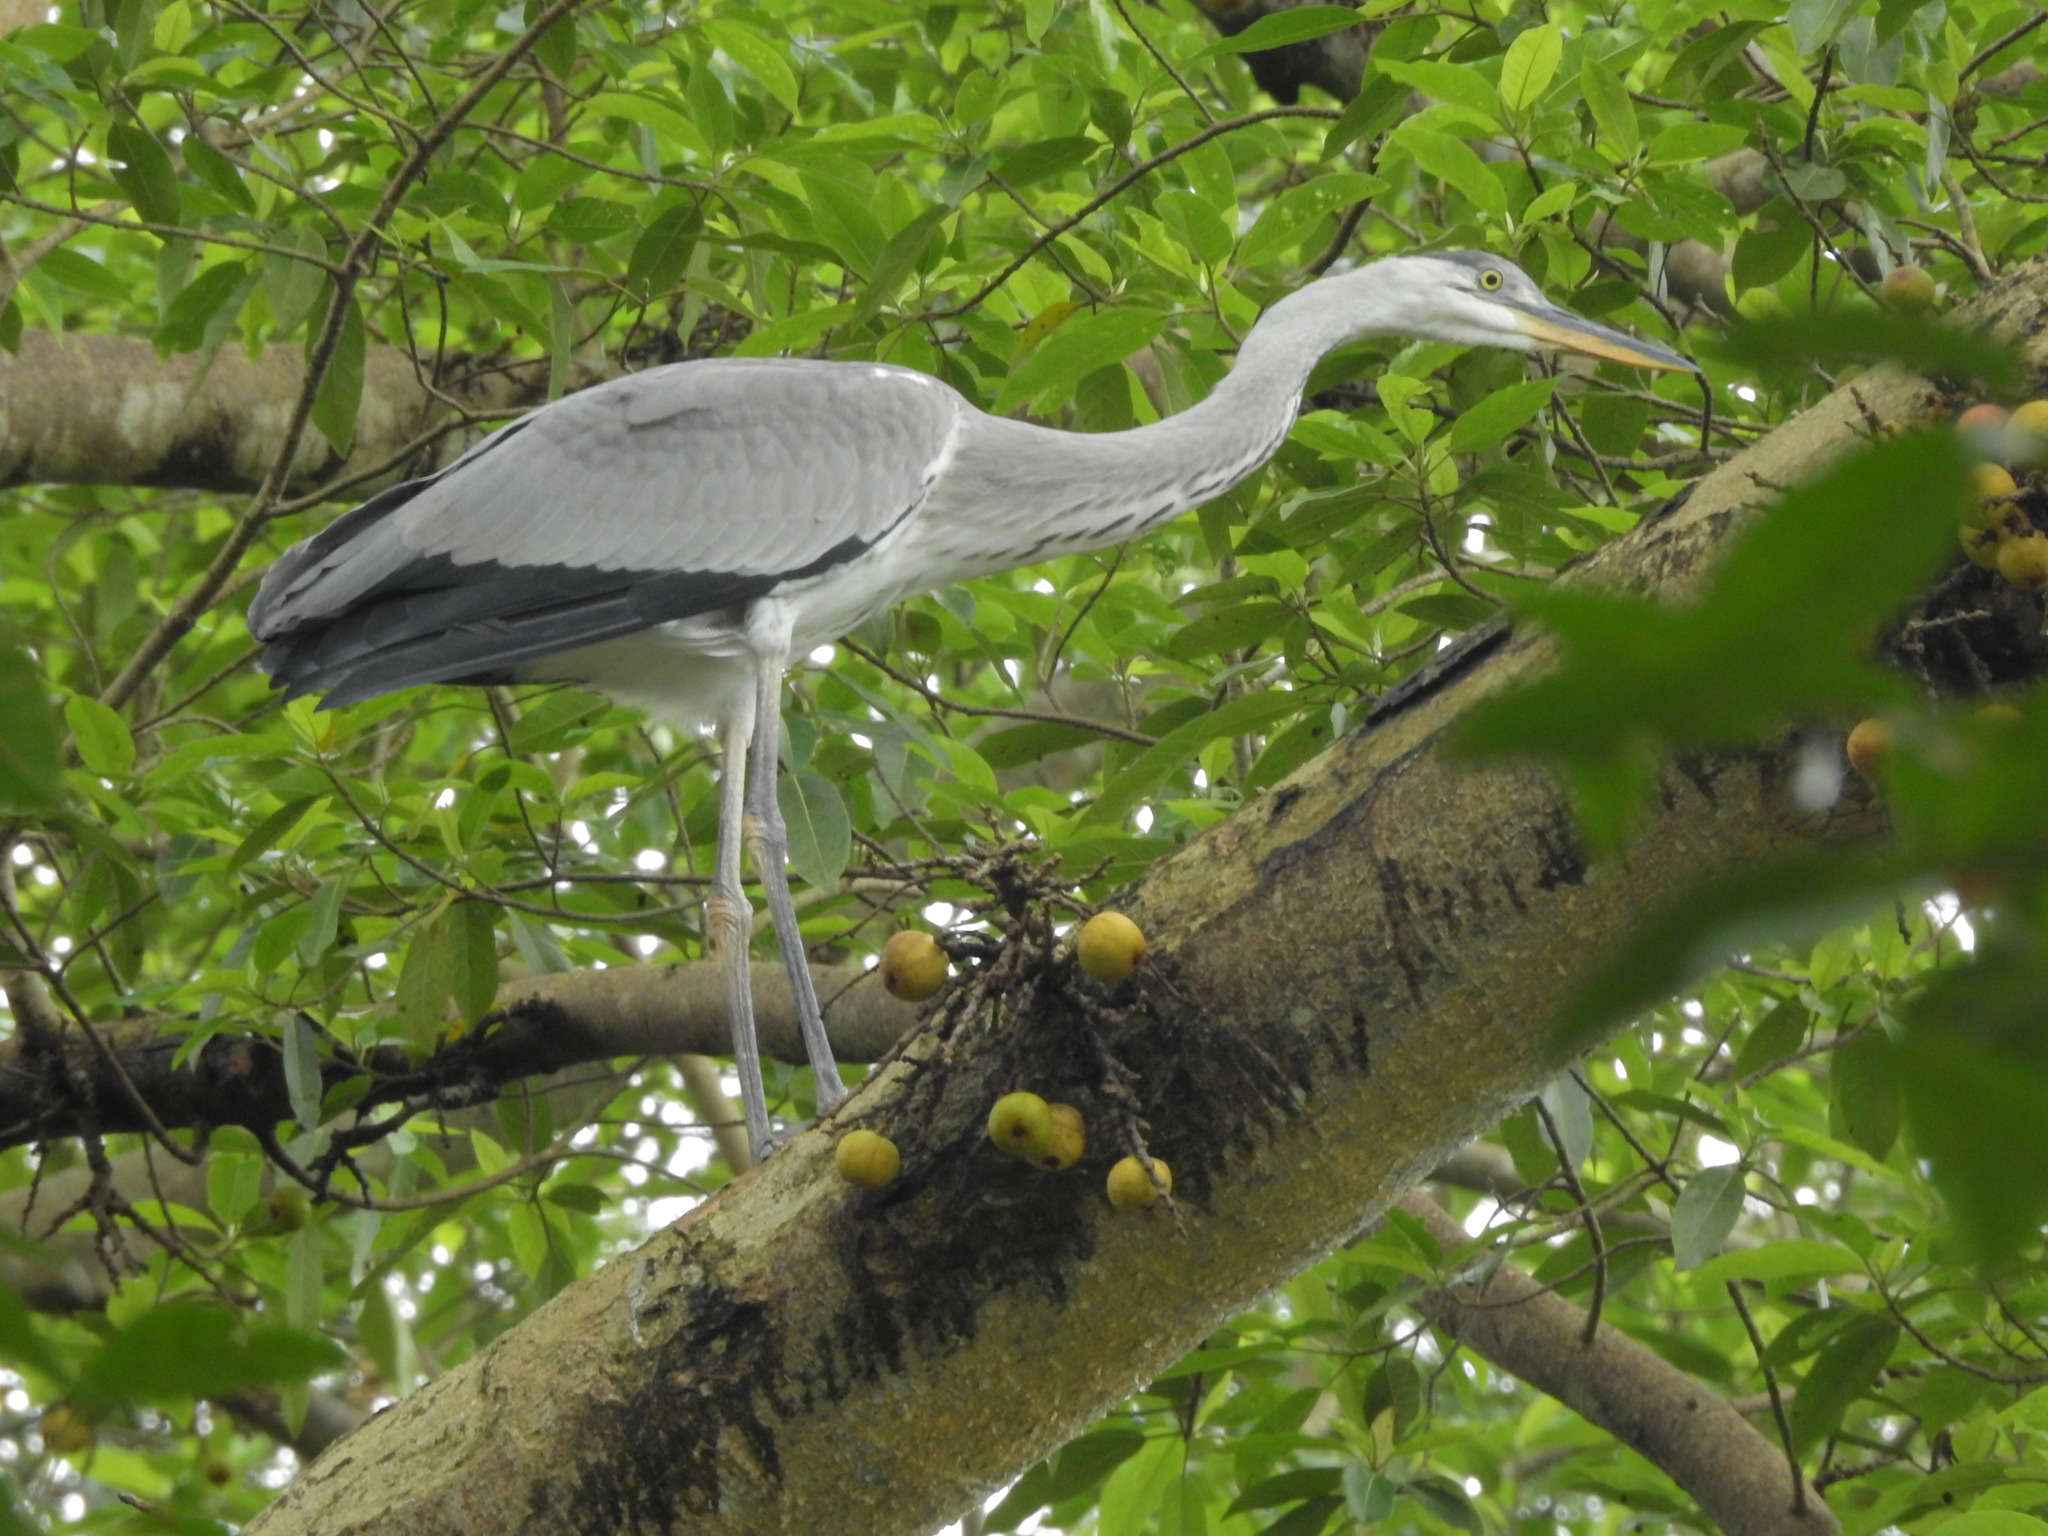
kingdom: Animalia
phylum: Chordata
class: Aves
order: Pelecaniformes
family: Ardeidae
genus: Ardea
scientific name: Ardea cinerea
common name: Grey heron
